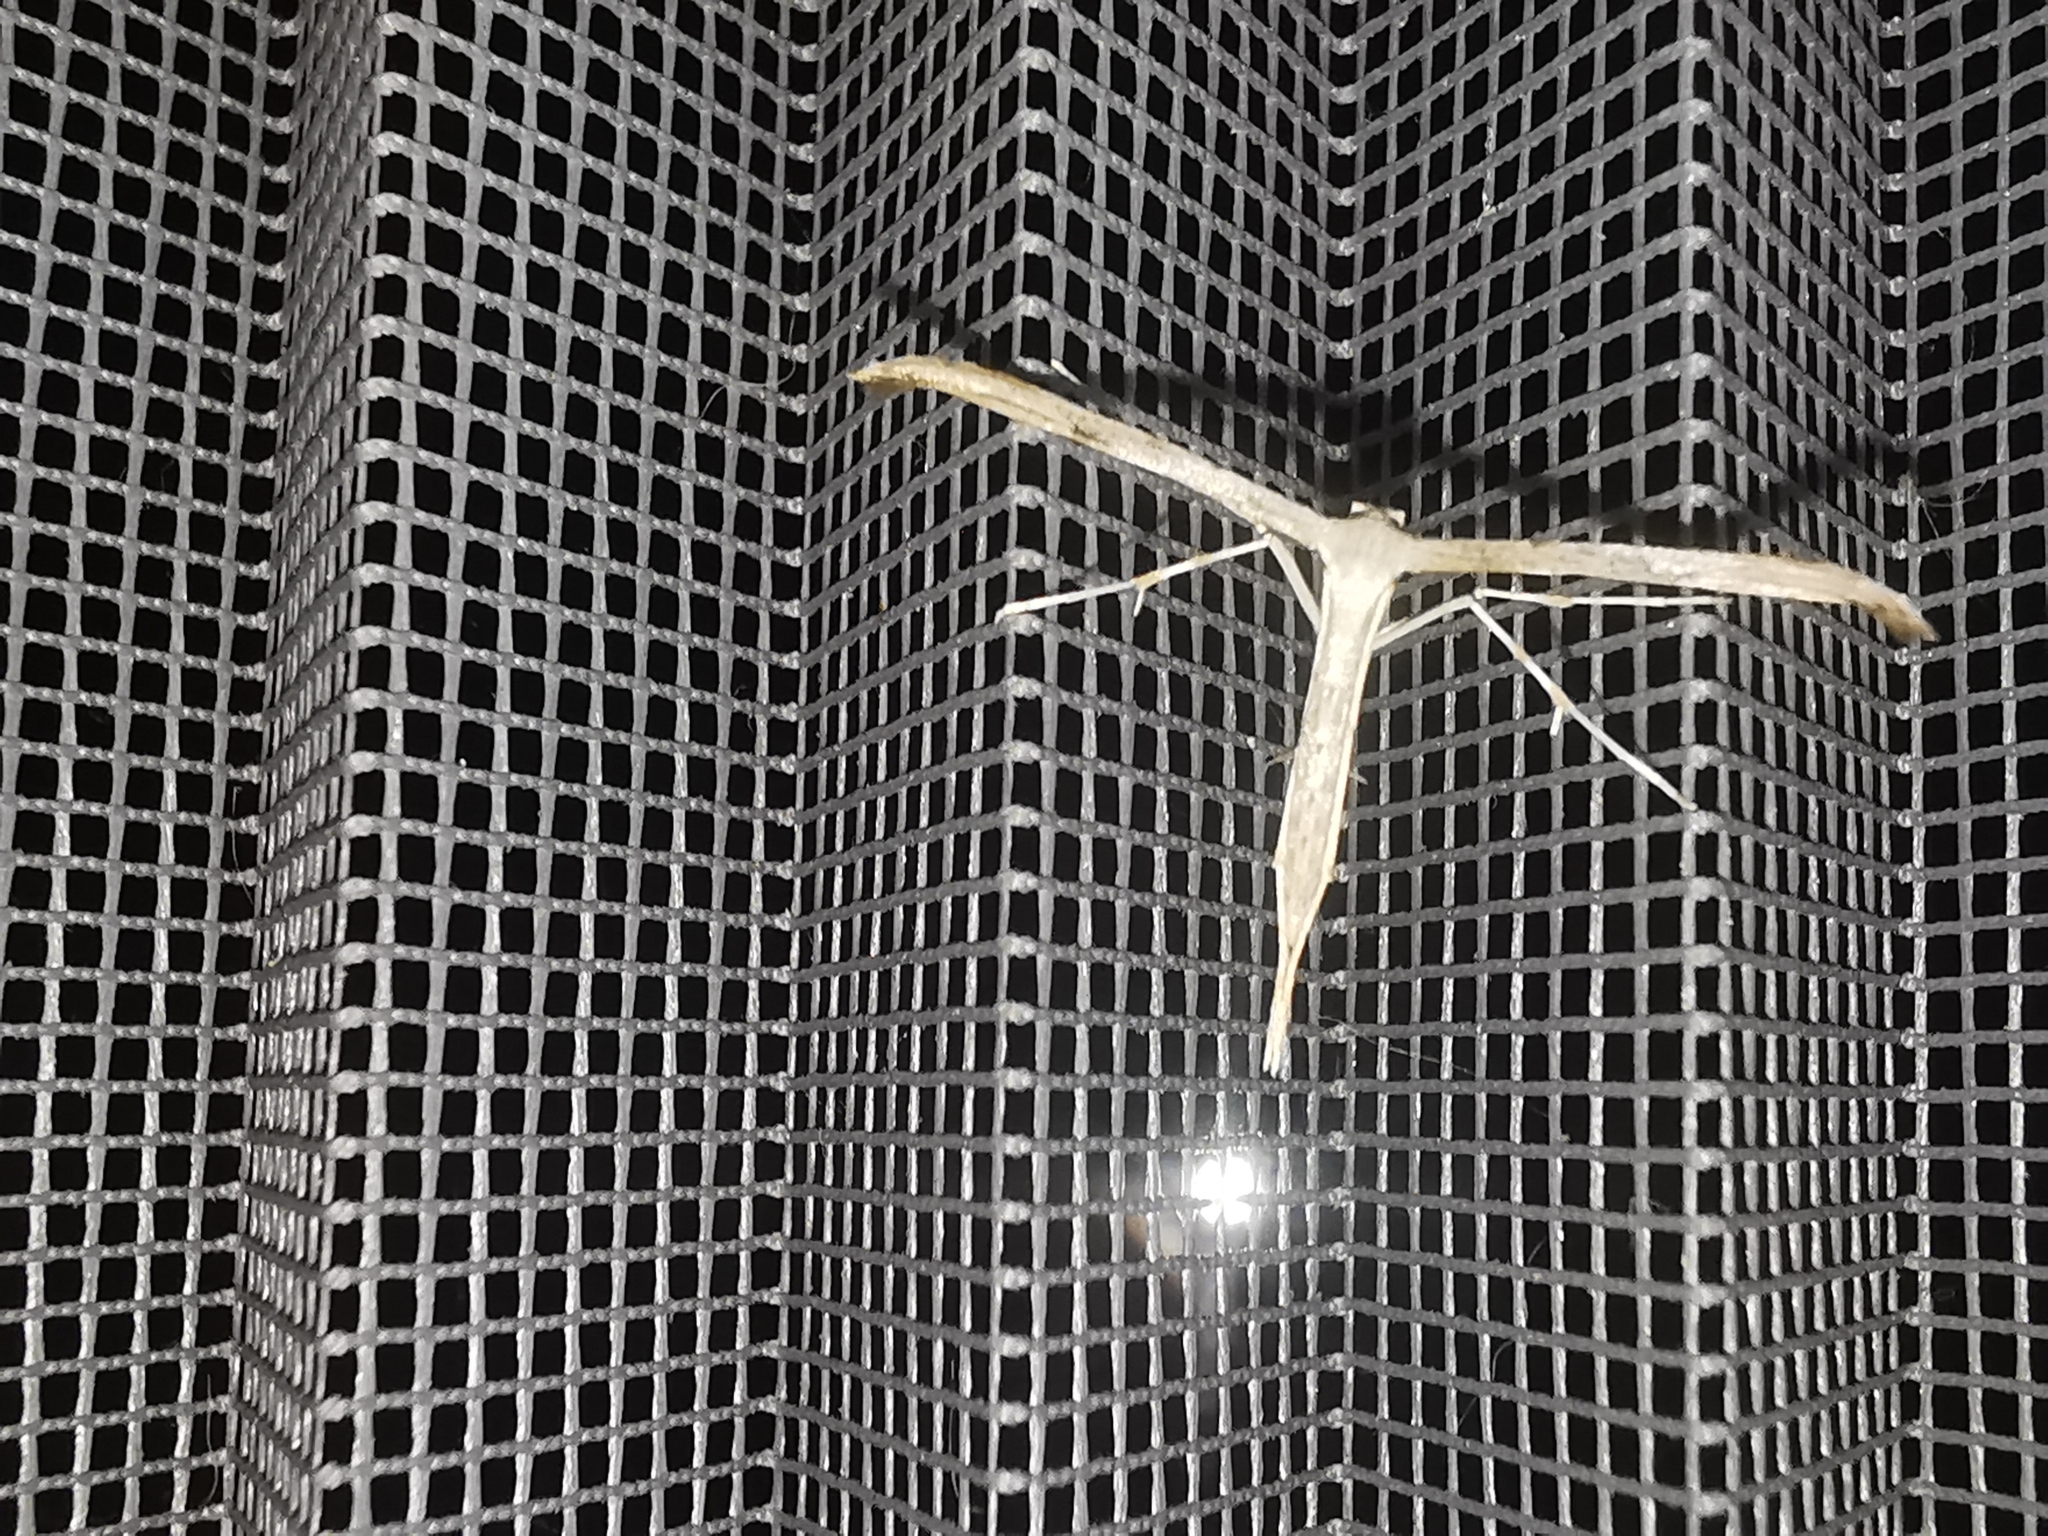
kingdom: Animalia
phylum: Arthropoda
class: Insecta
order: Lepidoptera
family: Pterophoridae
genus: Emmelina
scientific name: Emmelina monodactyla
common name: Common plume
